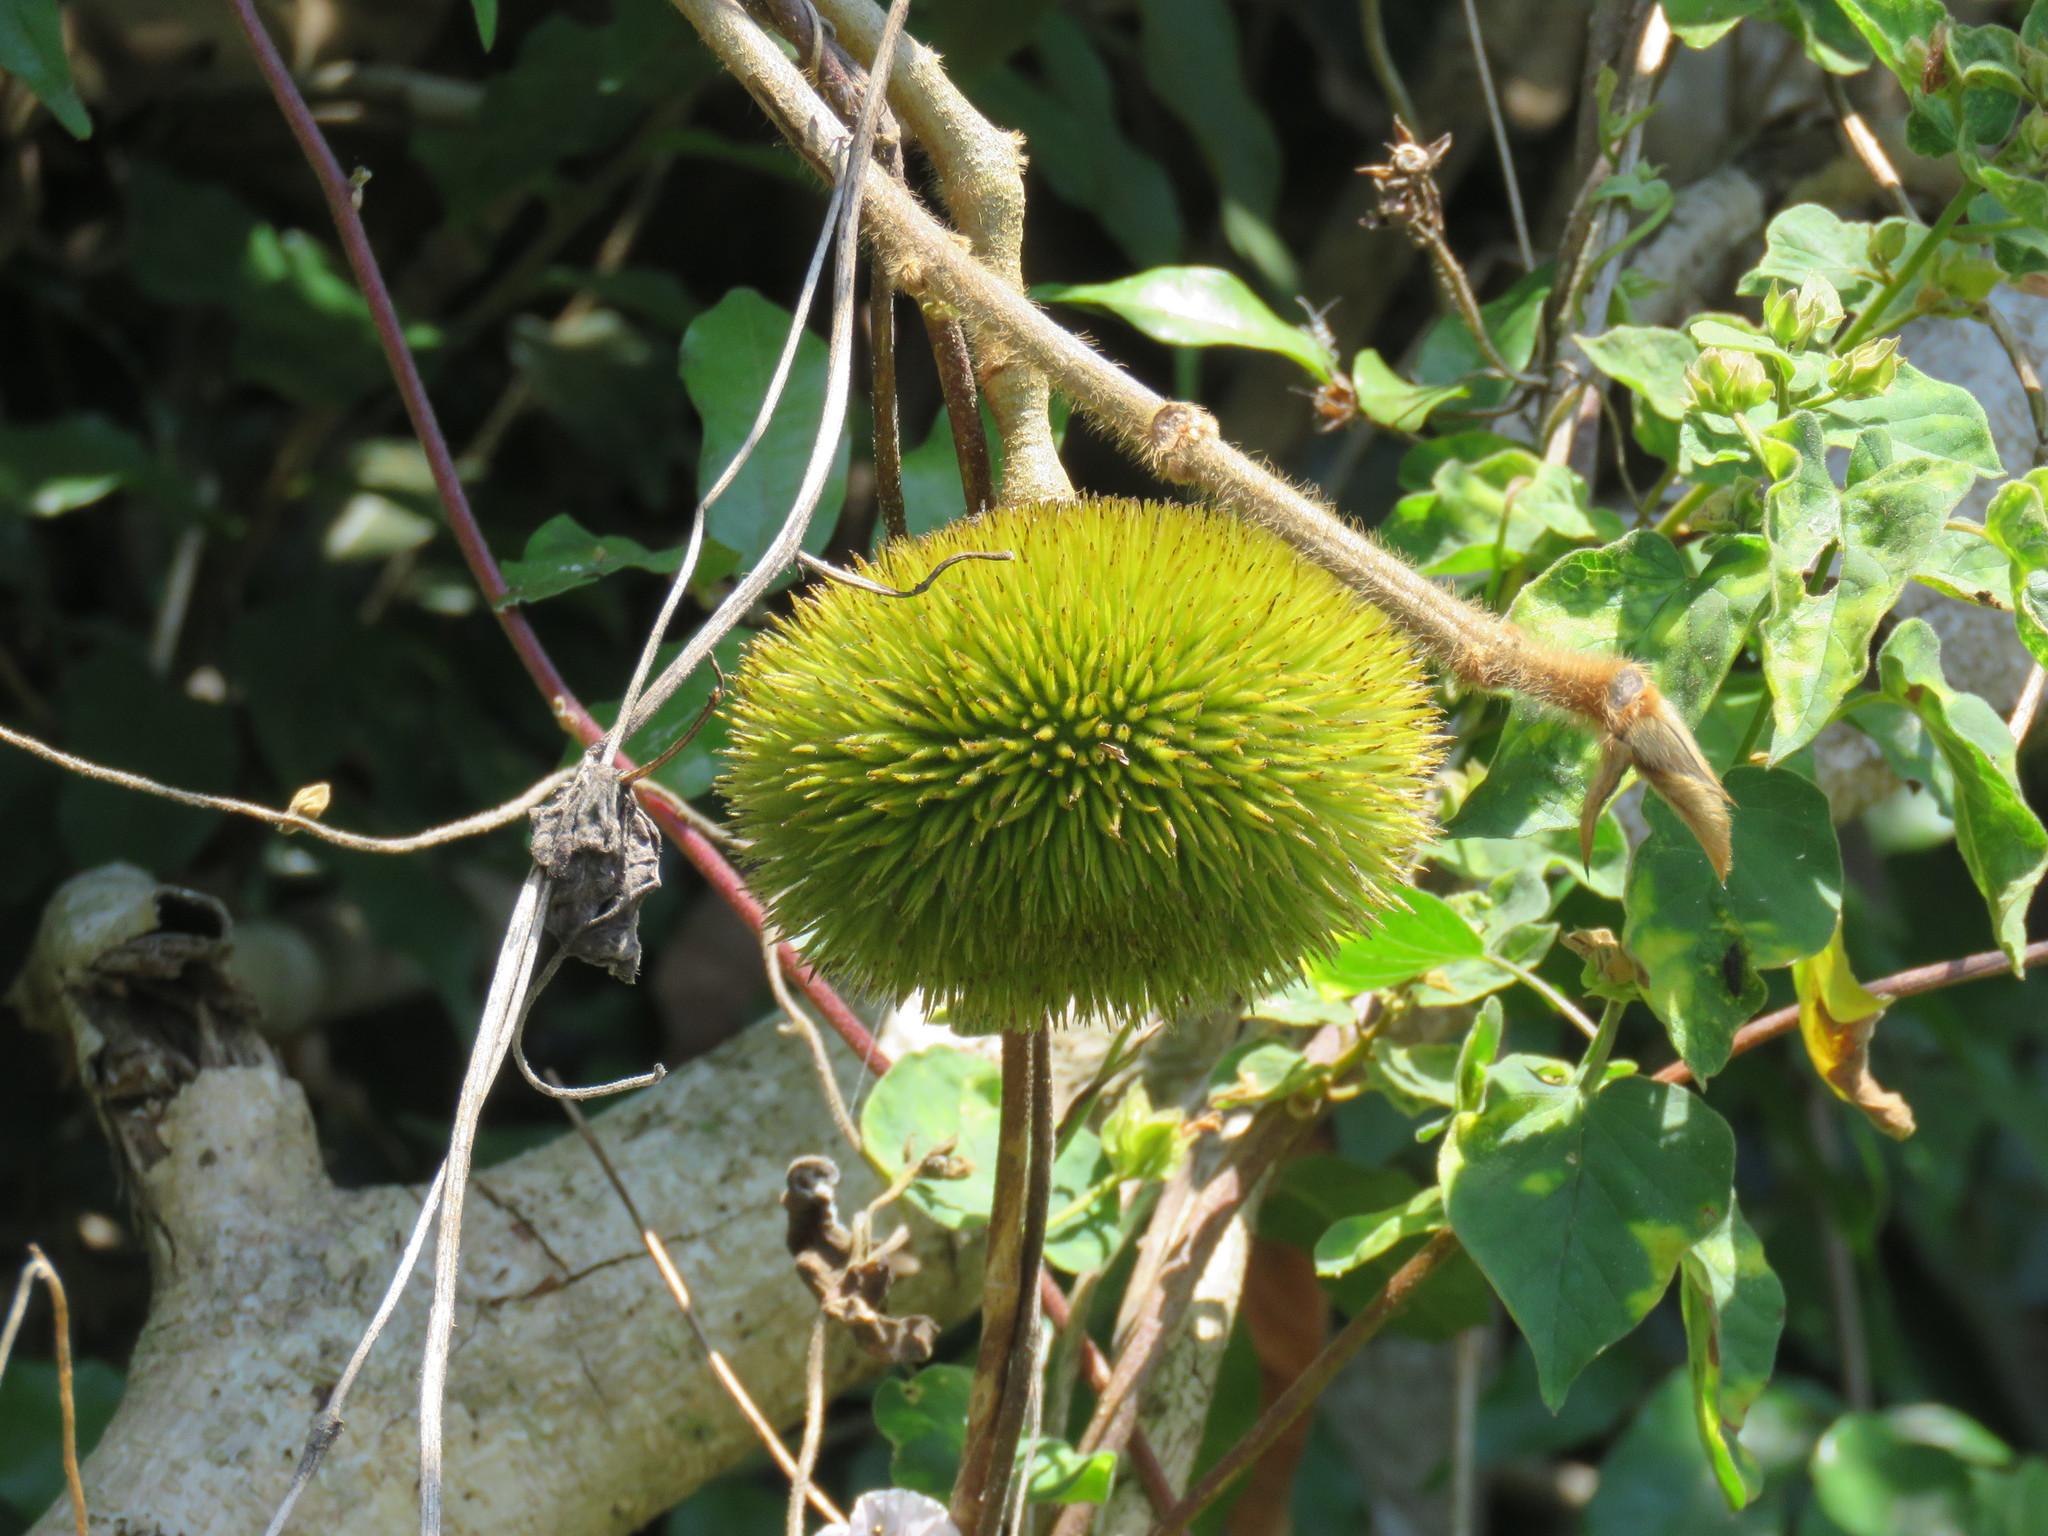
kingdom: Plantae
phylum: Tracheophyta
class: Magnoliopsida
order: Malvales
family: Malvaceae
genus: Apeiba
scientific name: Apeiba tibourbou
